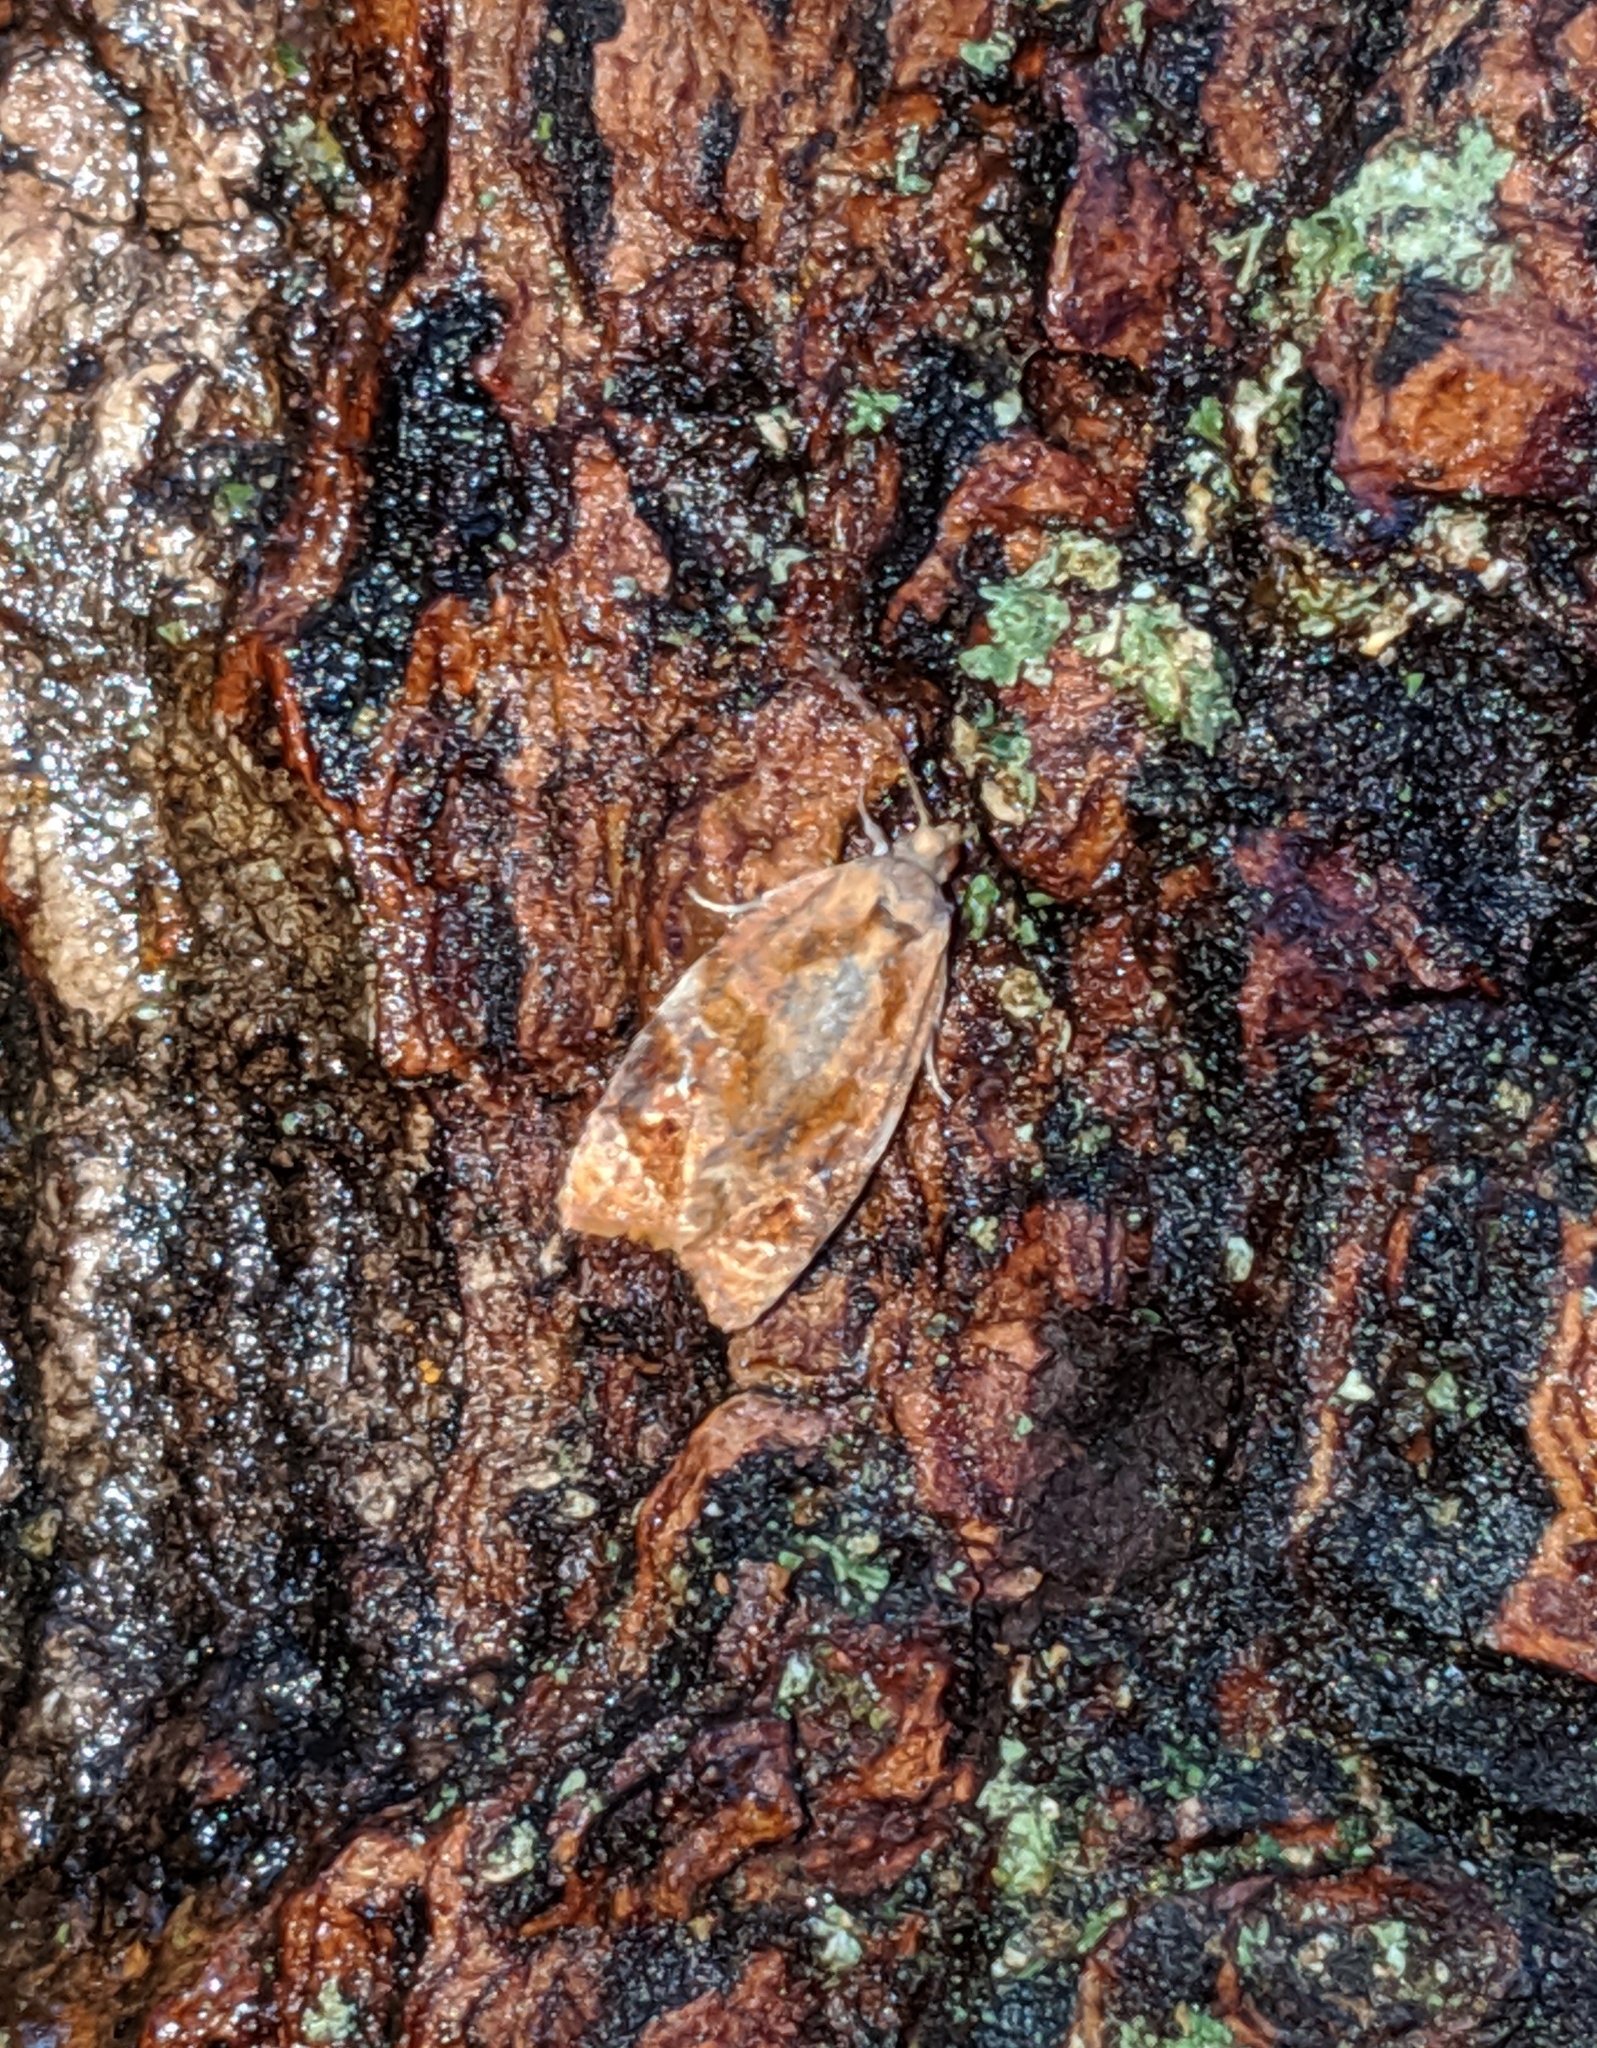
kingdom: Animalia
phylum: Arthropoda
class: Insecta
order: Lepidoptera
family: Tortricidae
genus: Ditula
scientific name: Ditula angustiorana
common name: Red-barred tortrix
